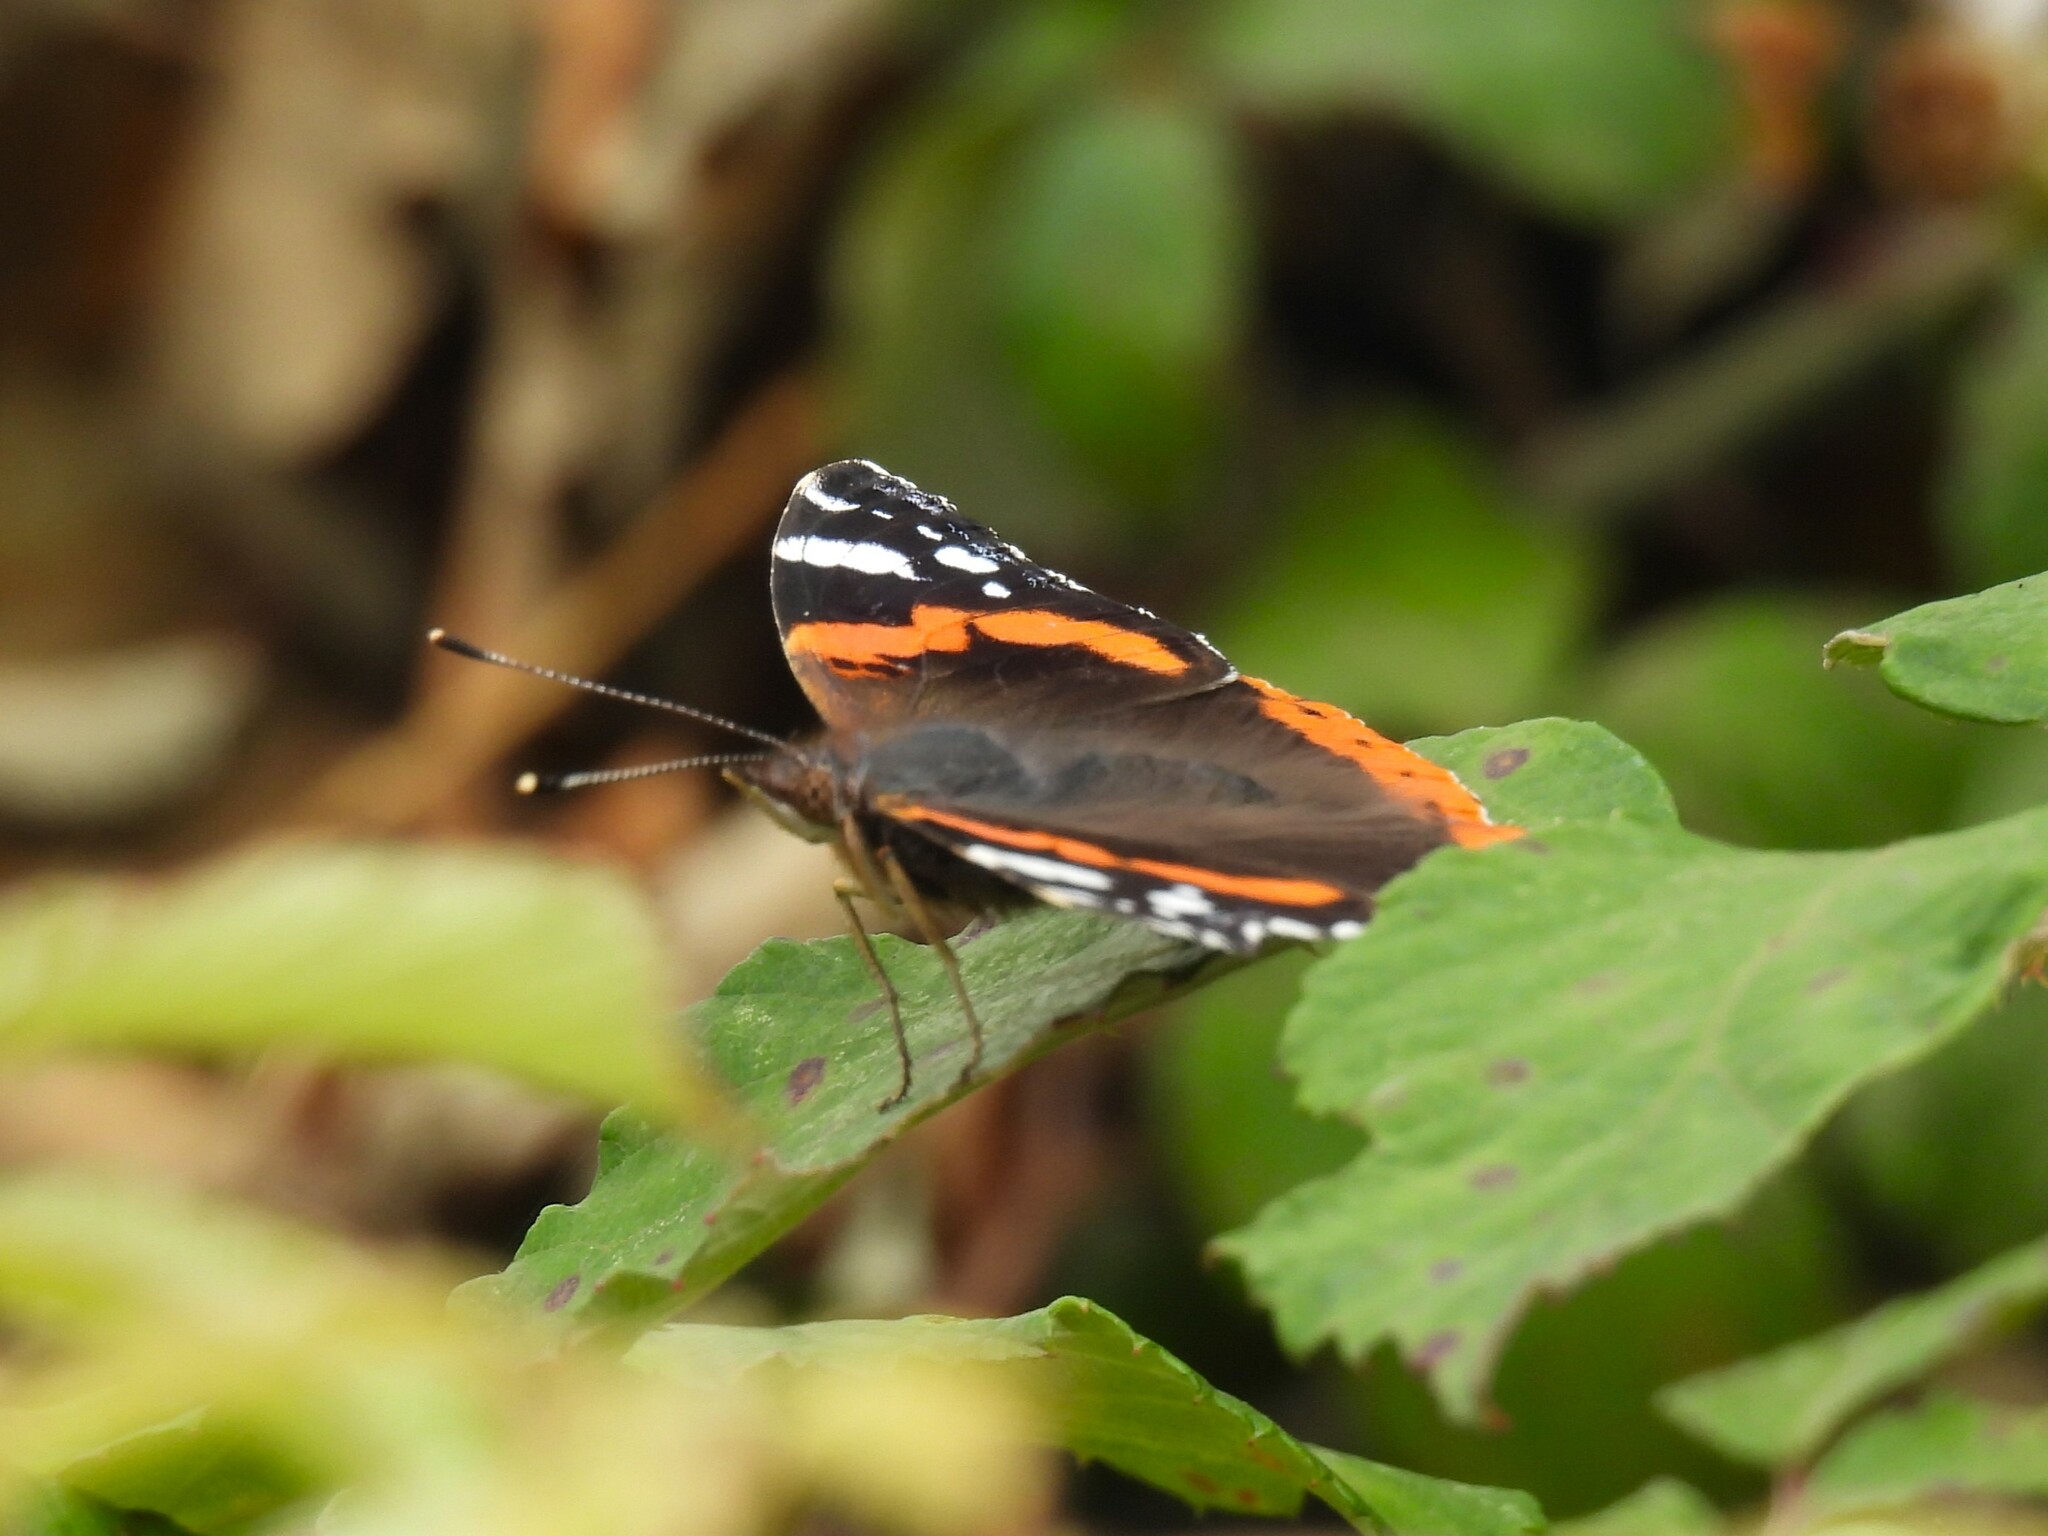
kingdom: Animalia
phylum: Arthropoda
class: Insecta
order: Lepidoptera
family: Nymphalidae
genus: Vanessa
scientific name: Vanessa atalanta
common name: Red admiral
